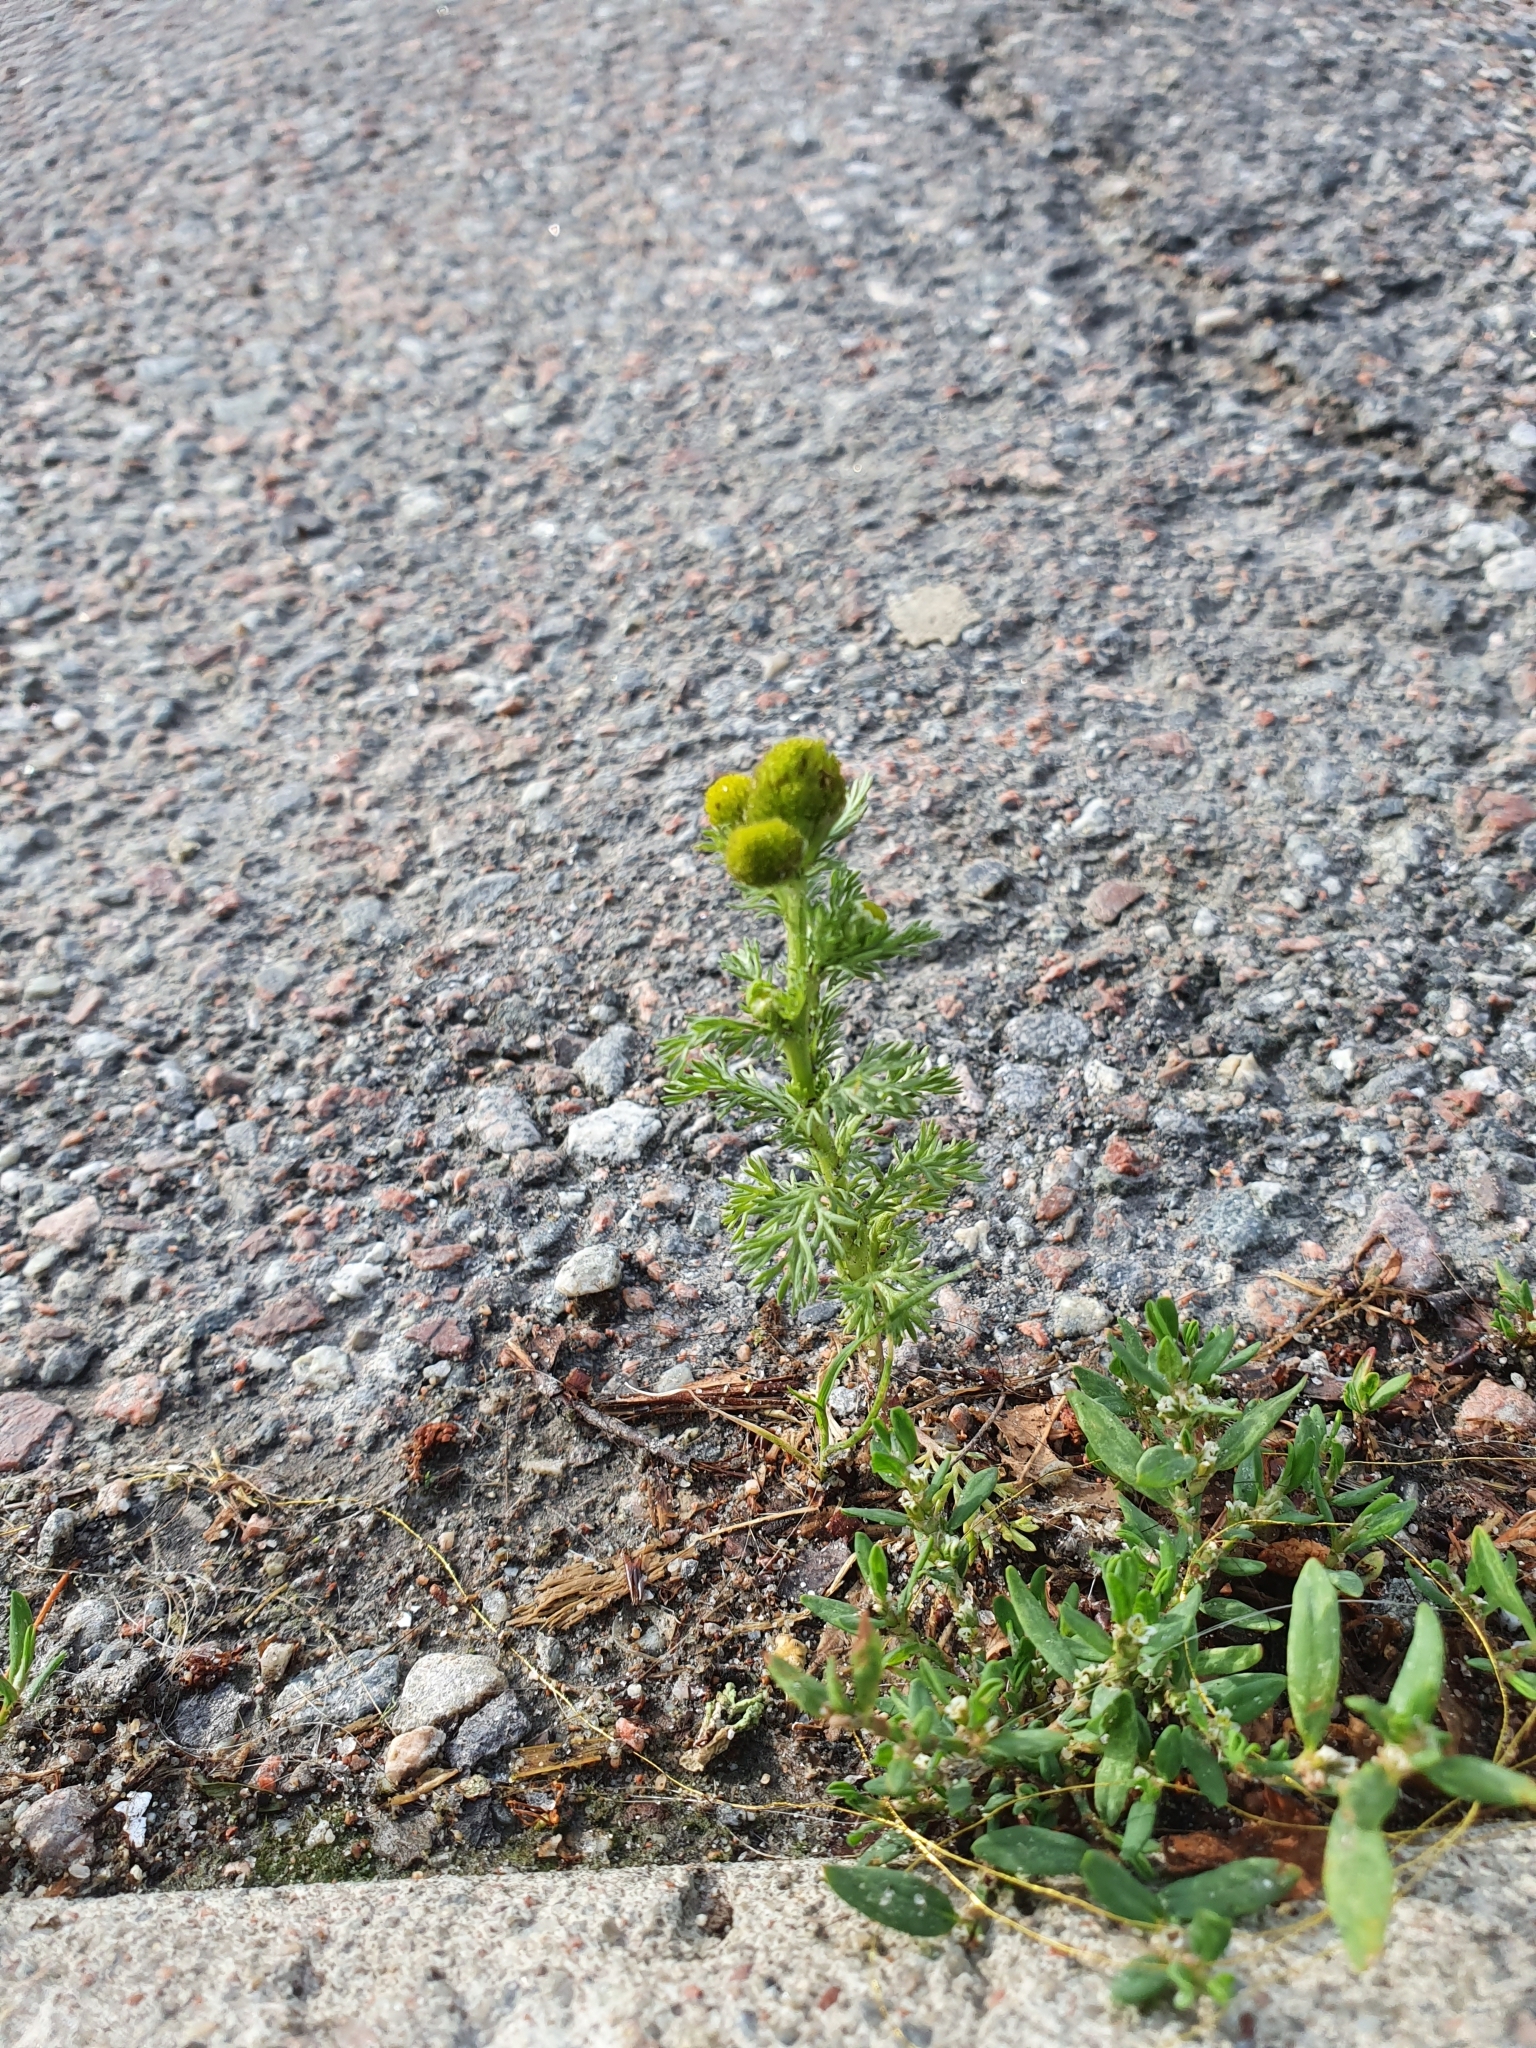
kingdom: Plantae
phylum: Tracheophyta
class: Magnoliopsida
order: Asterales
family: Asteraceae
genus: Matricaria
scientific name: Matricaria discoidea
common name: Disc mayweed
